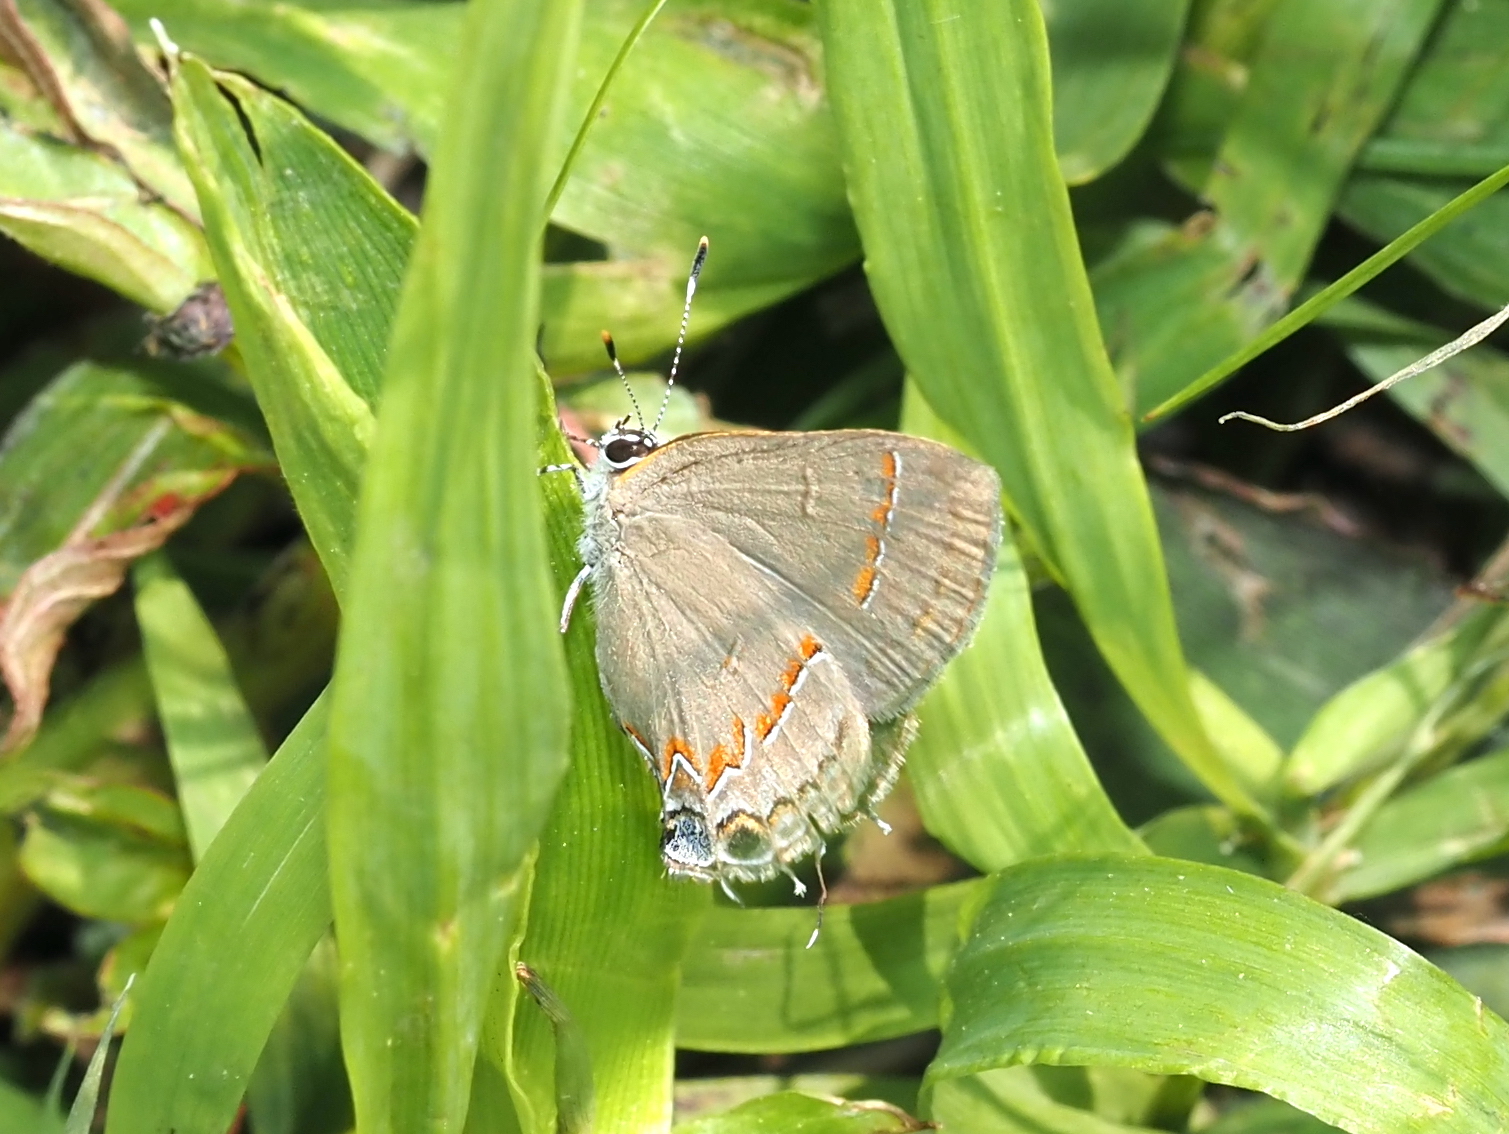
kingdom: Animalia
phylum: Arthropoda
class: Insecta
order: Lepidoptera
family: Lycaenidae
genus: Calycopis
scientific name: Calycopis cecrops
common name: Red-banded hairstreak
